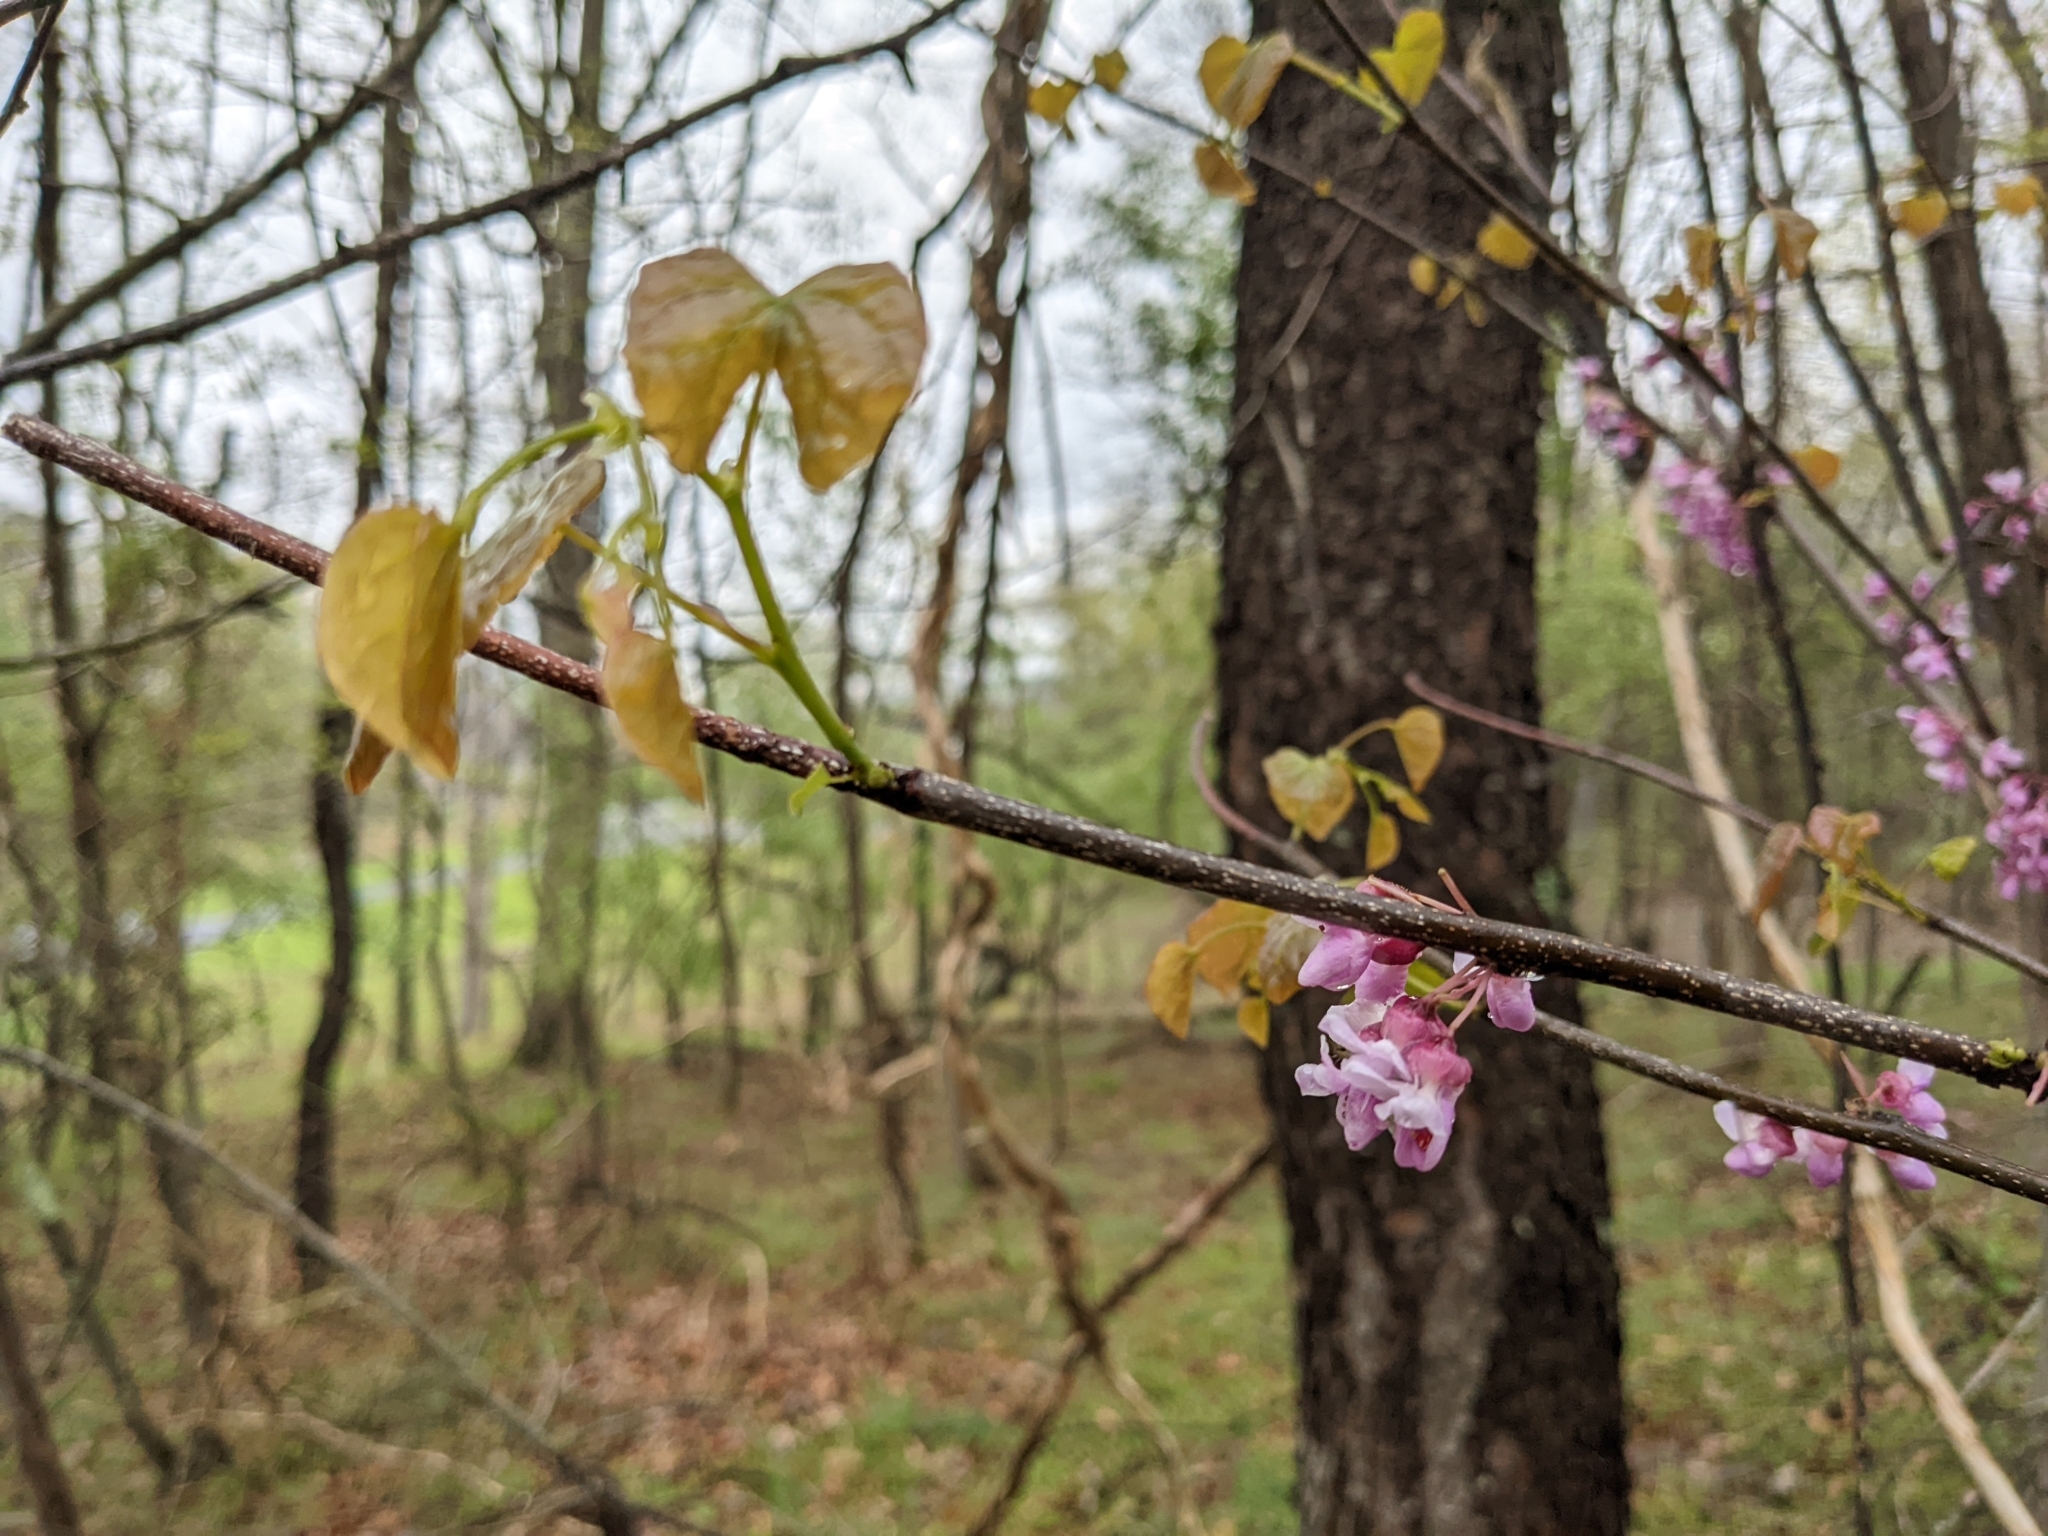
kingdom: Plantae
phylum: Tracheophyta
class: Magnoliopsida
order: Fabales
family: Fabaceae
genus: Cercis
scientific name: Cercis canadensis
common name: Eastern redbud
